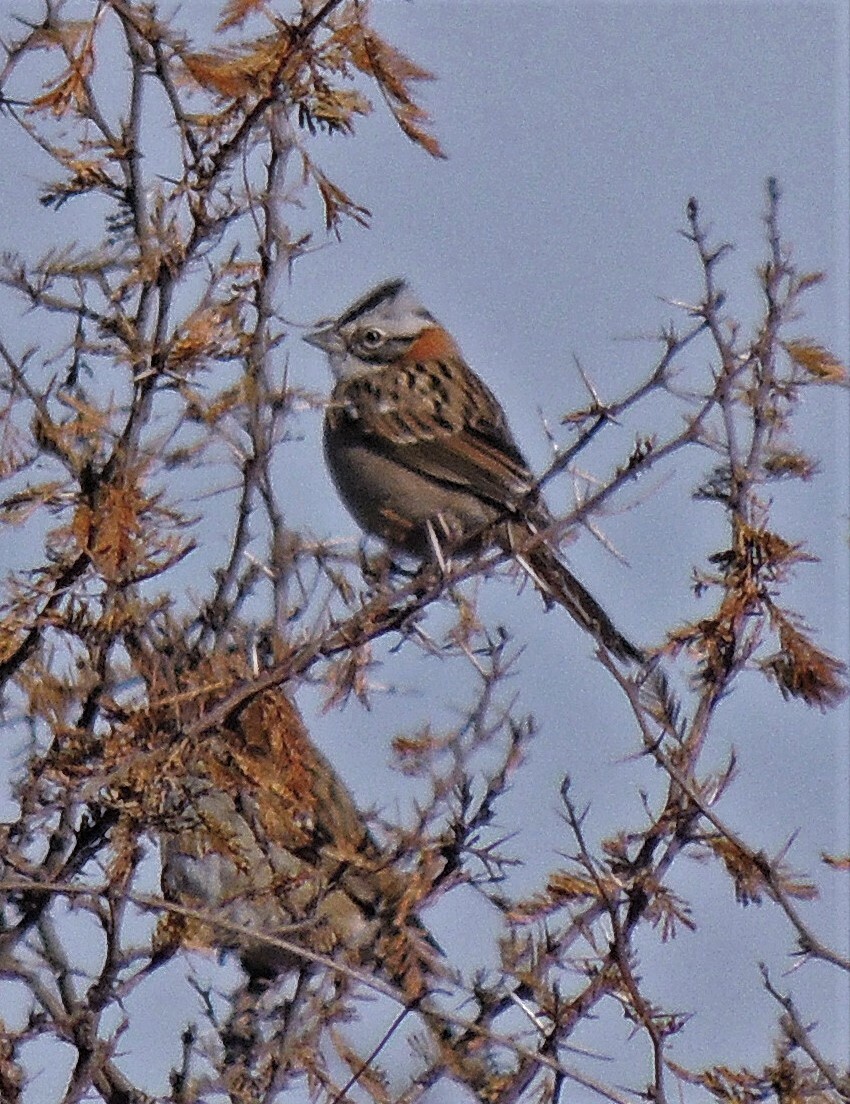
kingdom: Animalia
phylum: Chordata
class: Aves
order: Passeriformes
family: Passerellidae
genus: Zonotrichia
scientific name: Zonotrichia capensis
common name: Rufous-collared sparrow
